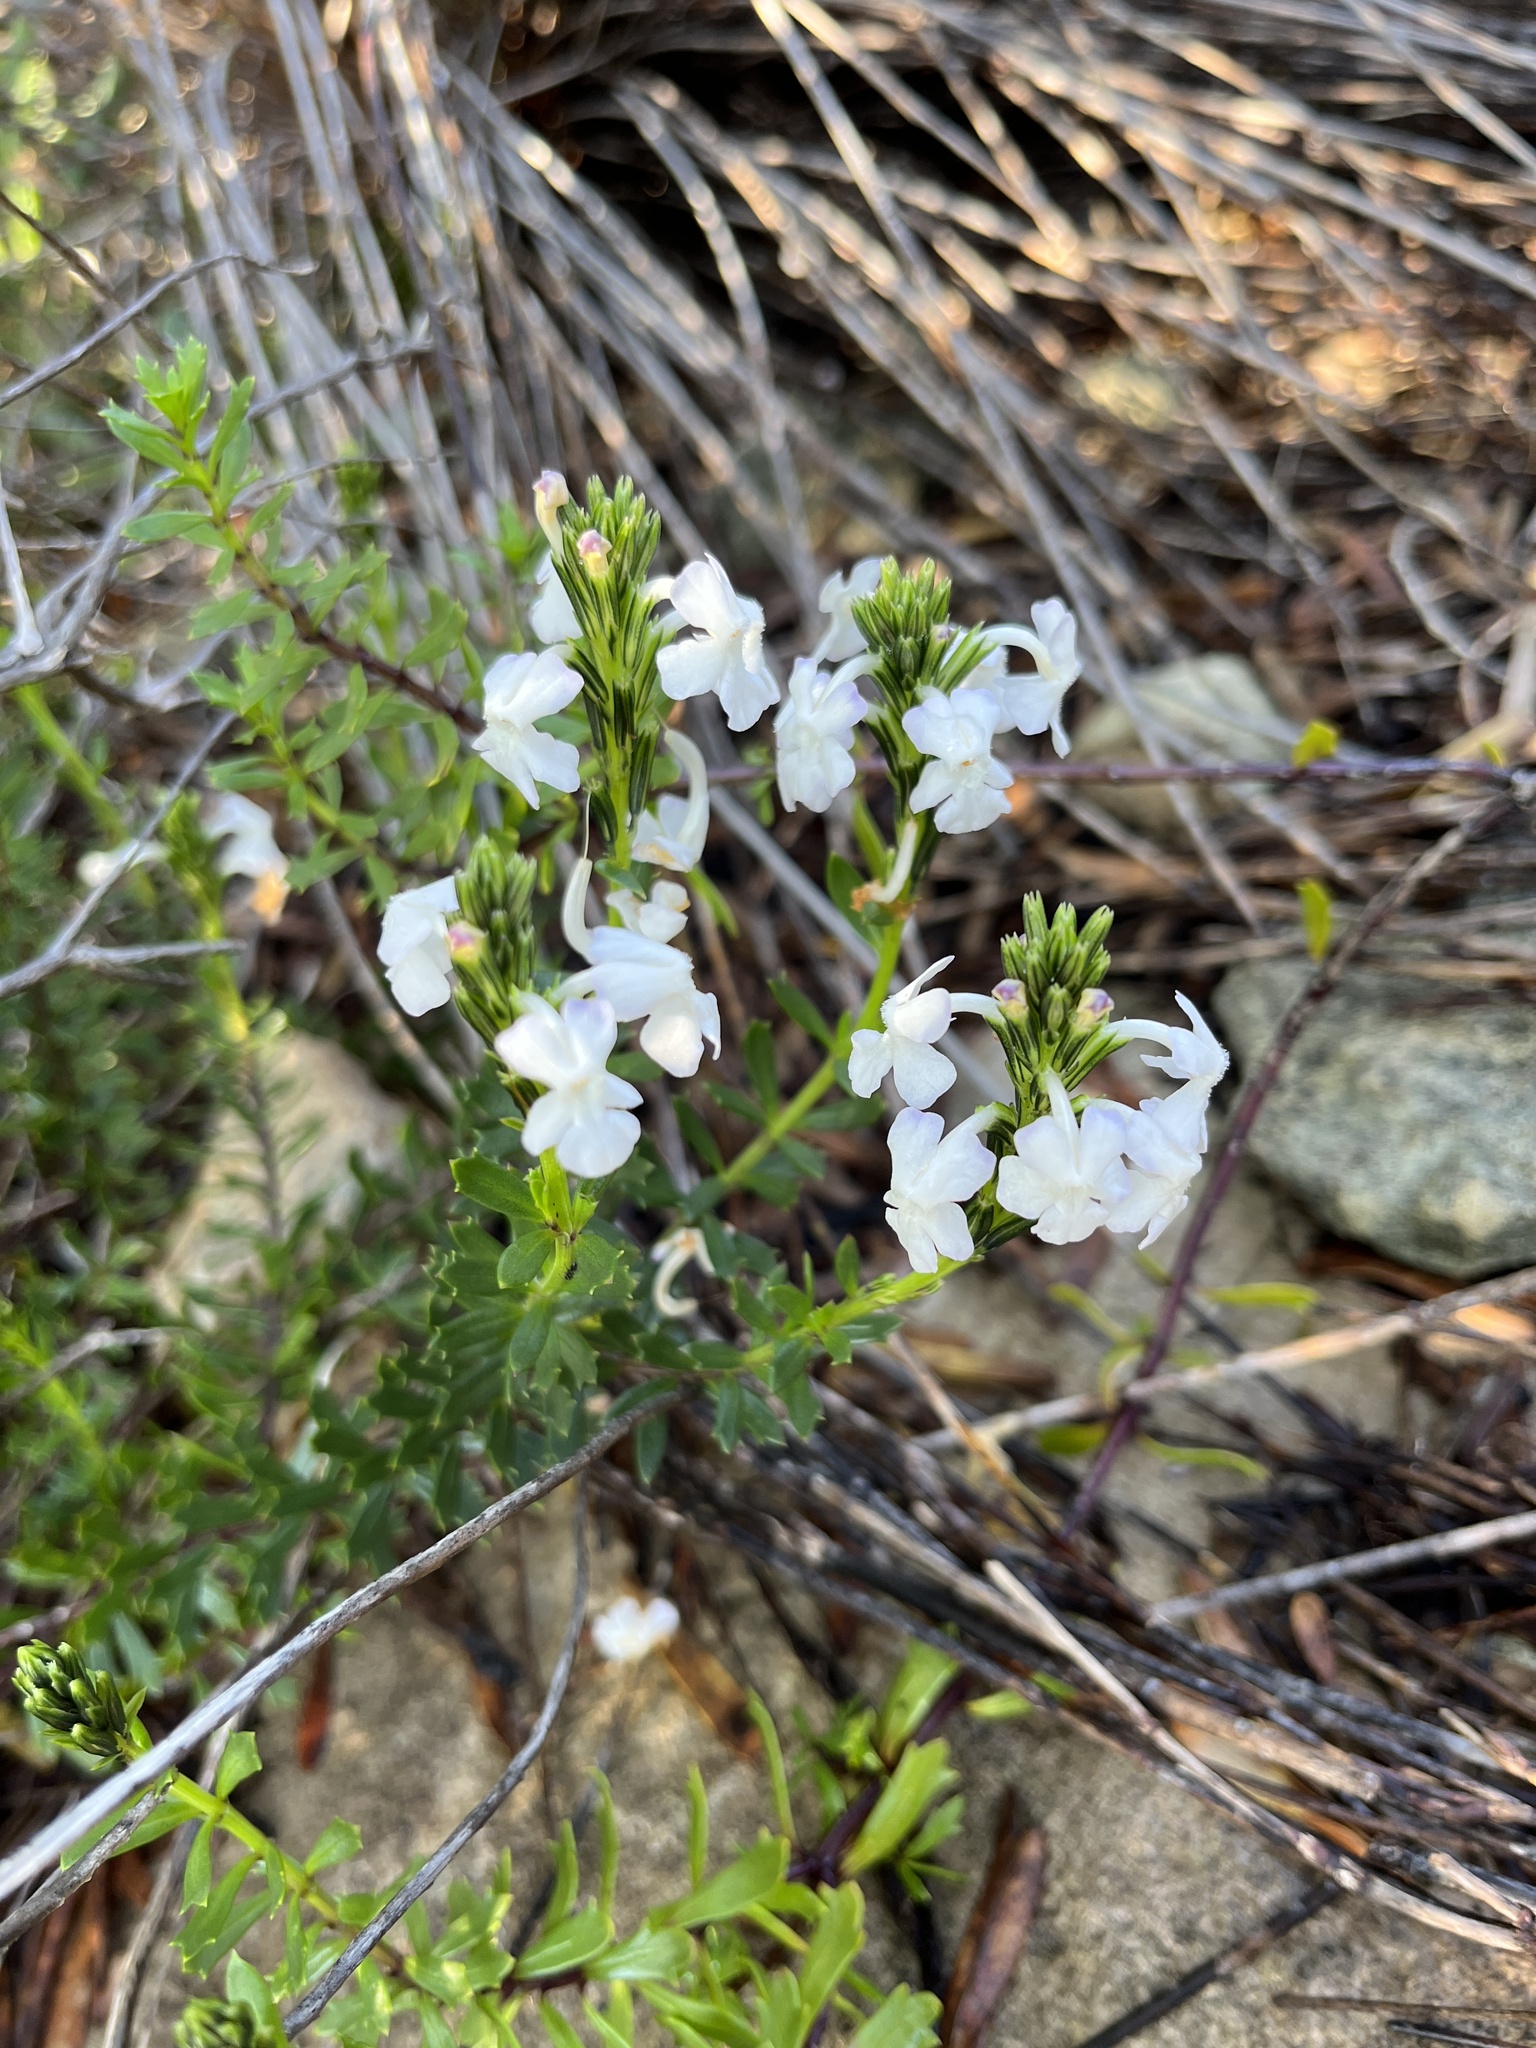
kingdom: Plantae
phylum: Tracheophyta
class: Magnoliopsida
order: Lamiales
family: Verbenaceae
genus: Chascanum
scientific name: Chascanum cernuum
